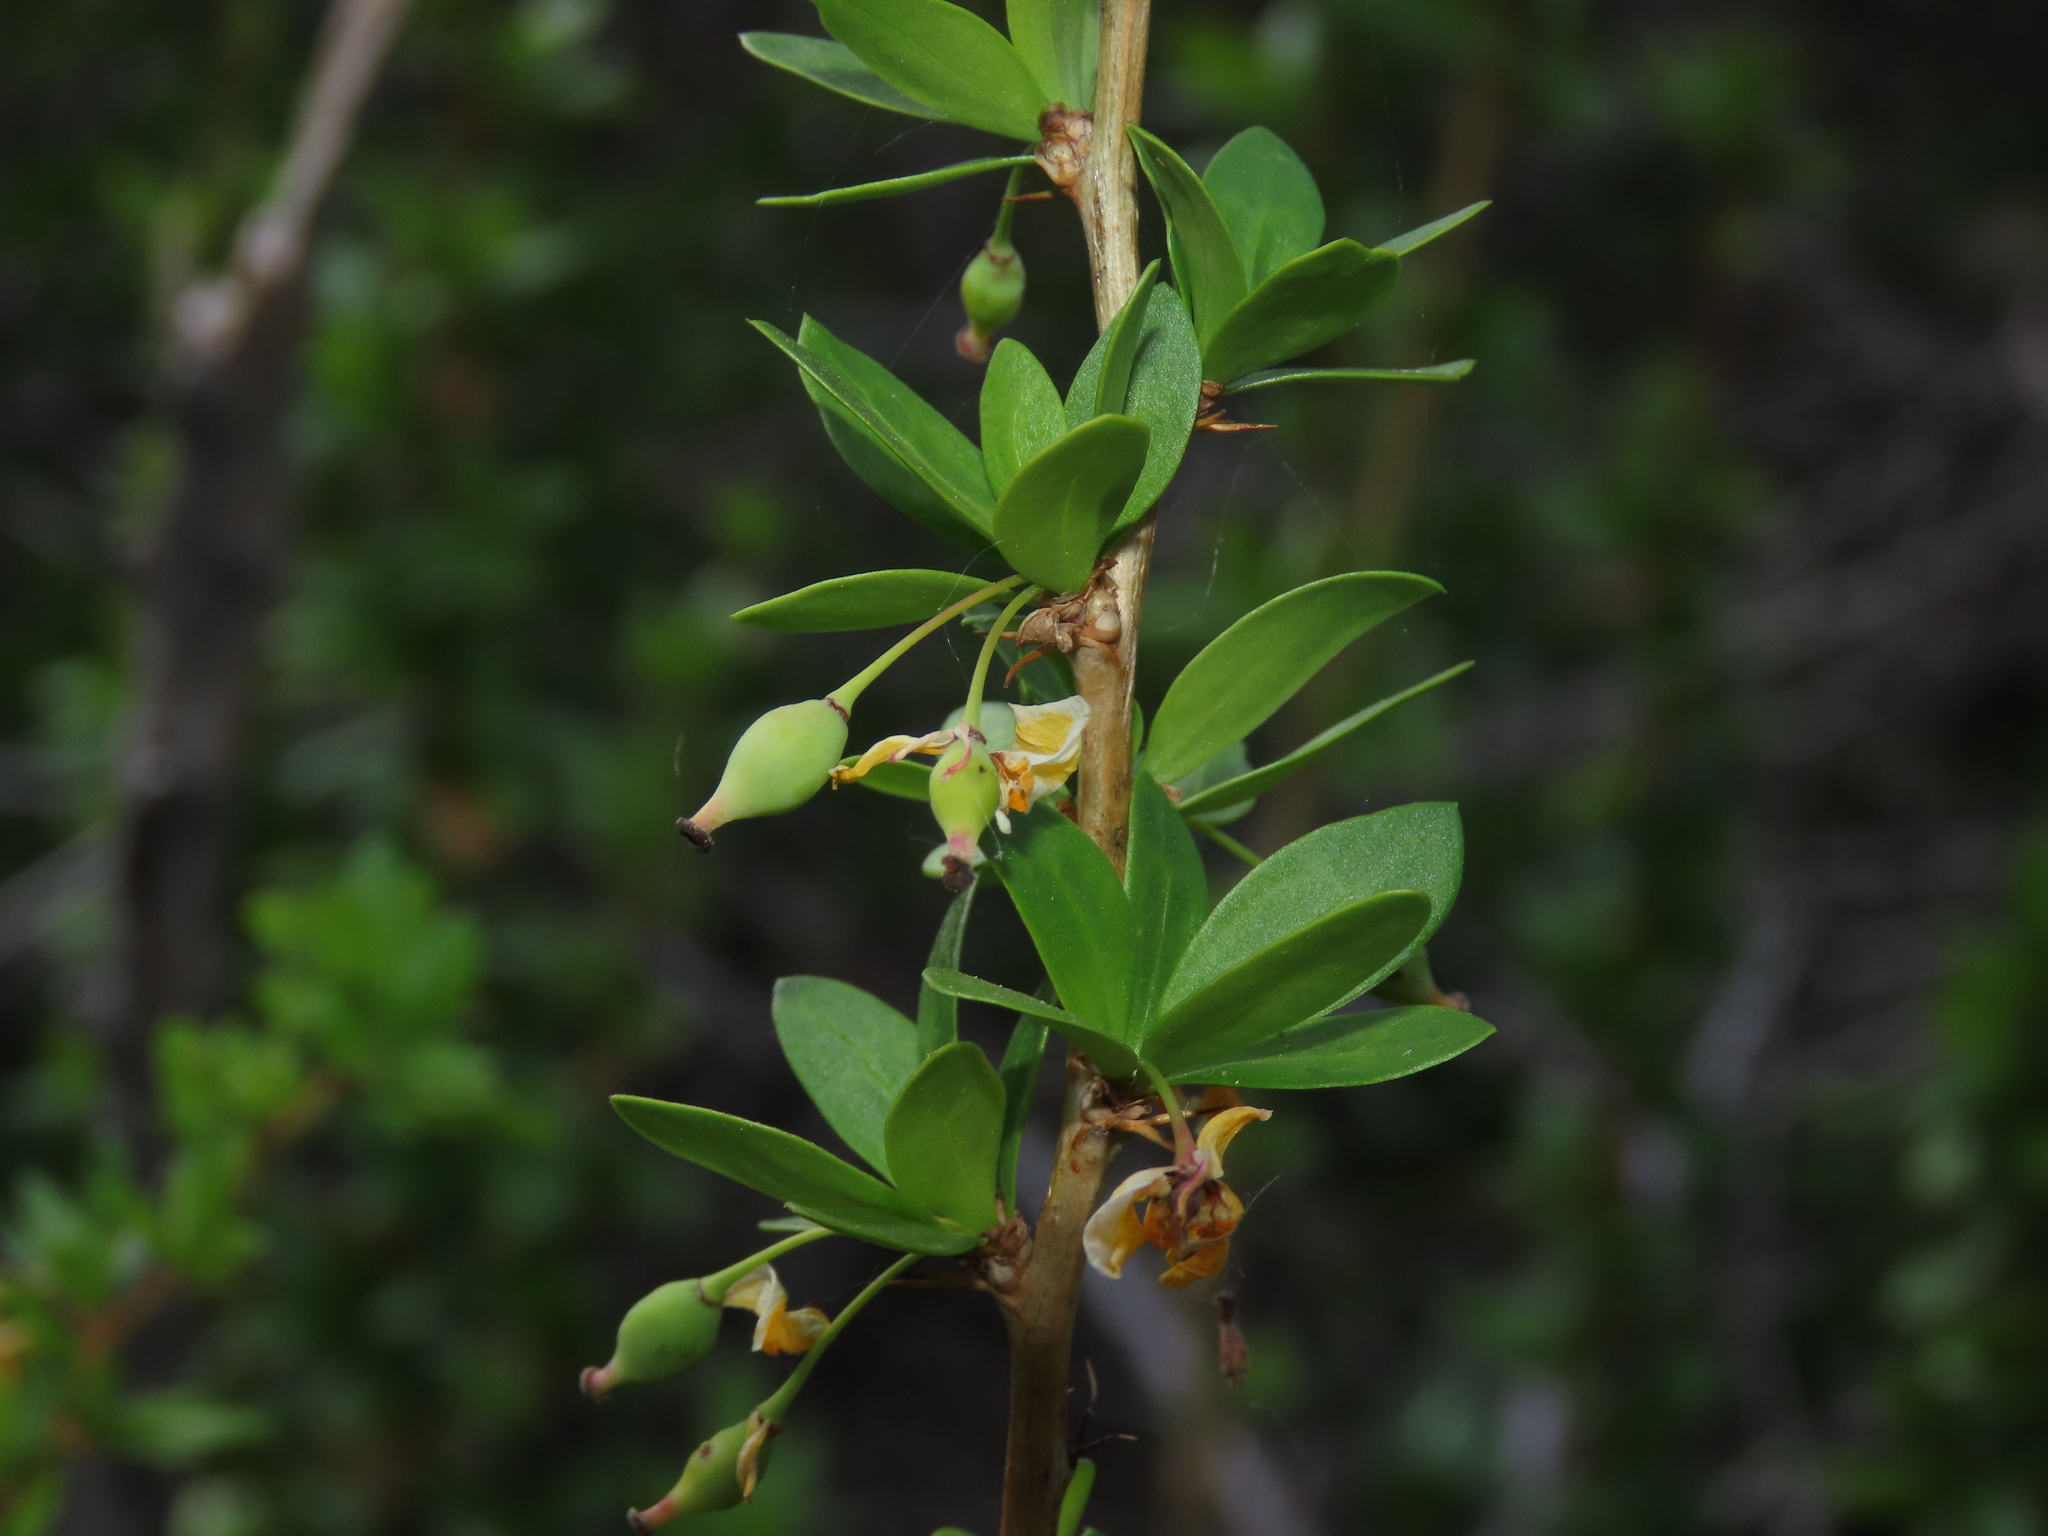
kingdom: Plantae
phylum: Tracheophyta
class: Magnoliopsida
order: Ranunculales
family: Berberidaceae
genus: Berberis
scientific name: Berberis montana
